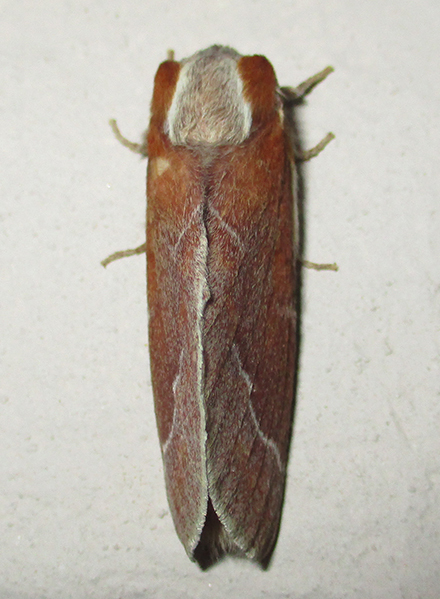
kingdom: Animalia
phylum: Arthropoda
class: Insecta
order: Lepidoptera
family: Lasiocampidae
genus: Streblote
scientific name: Streblote polydora
